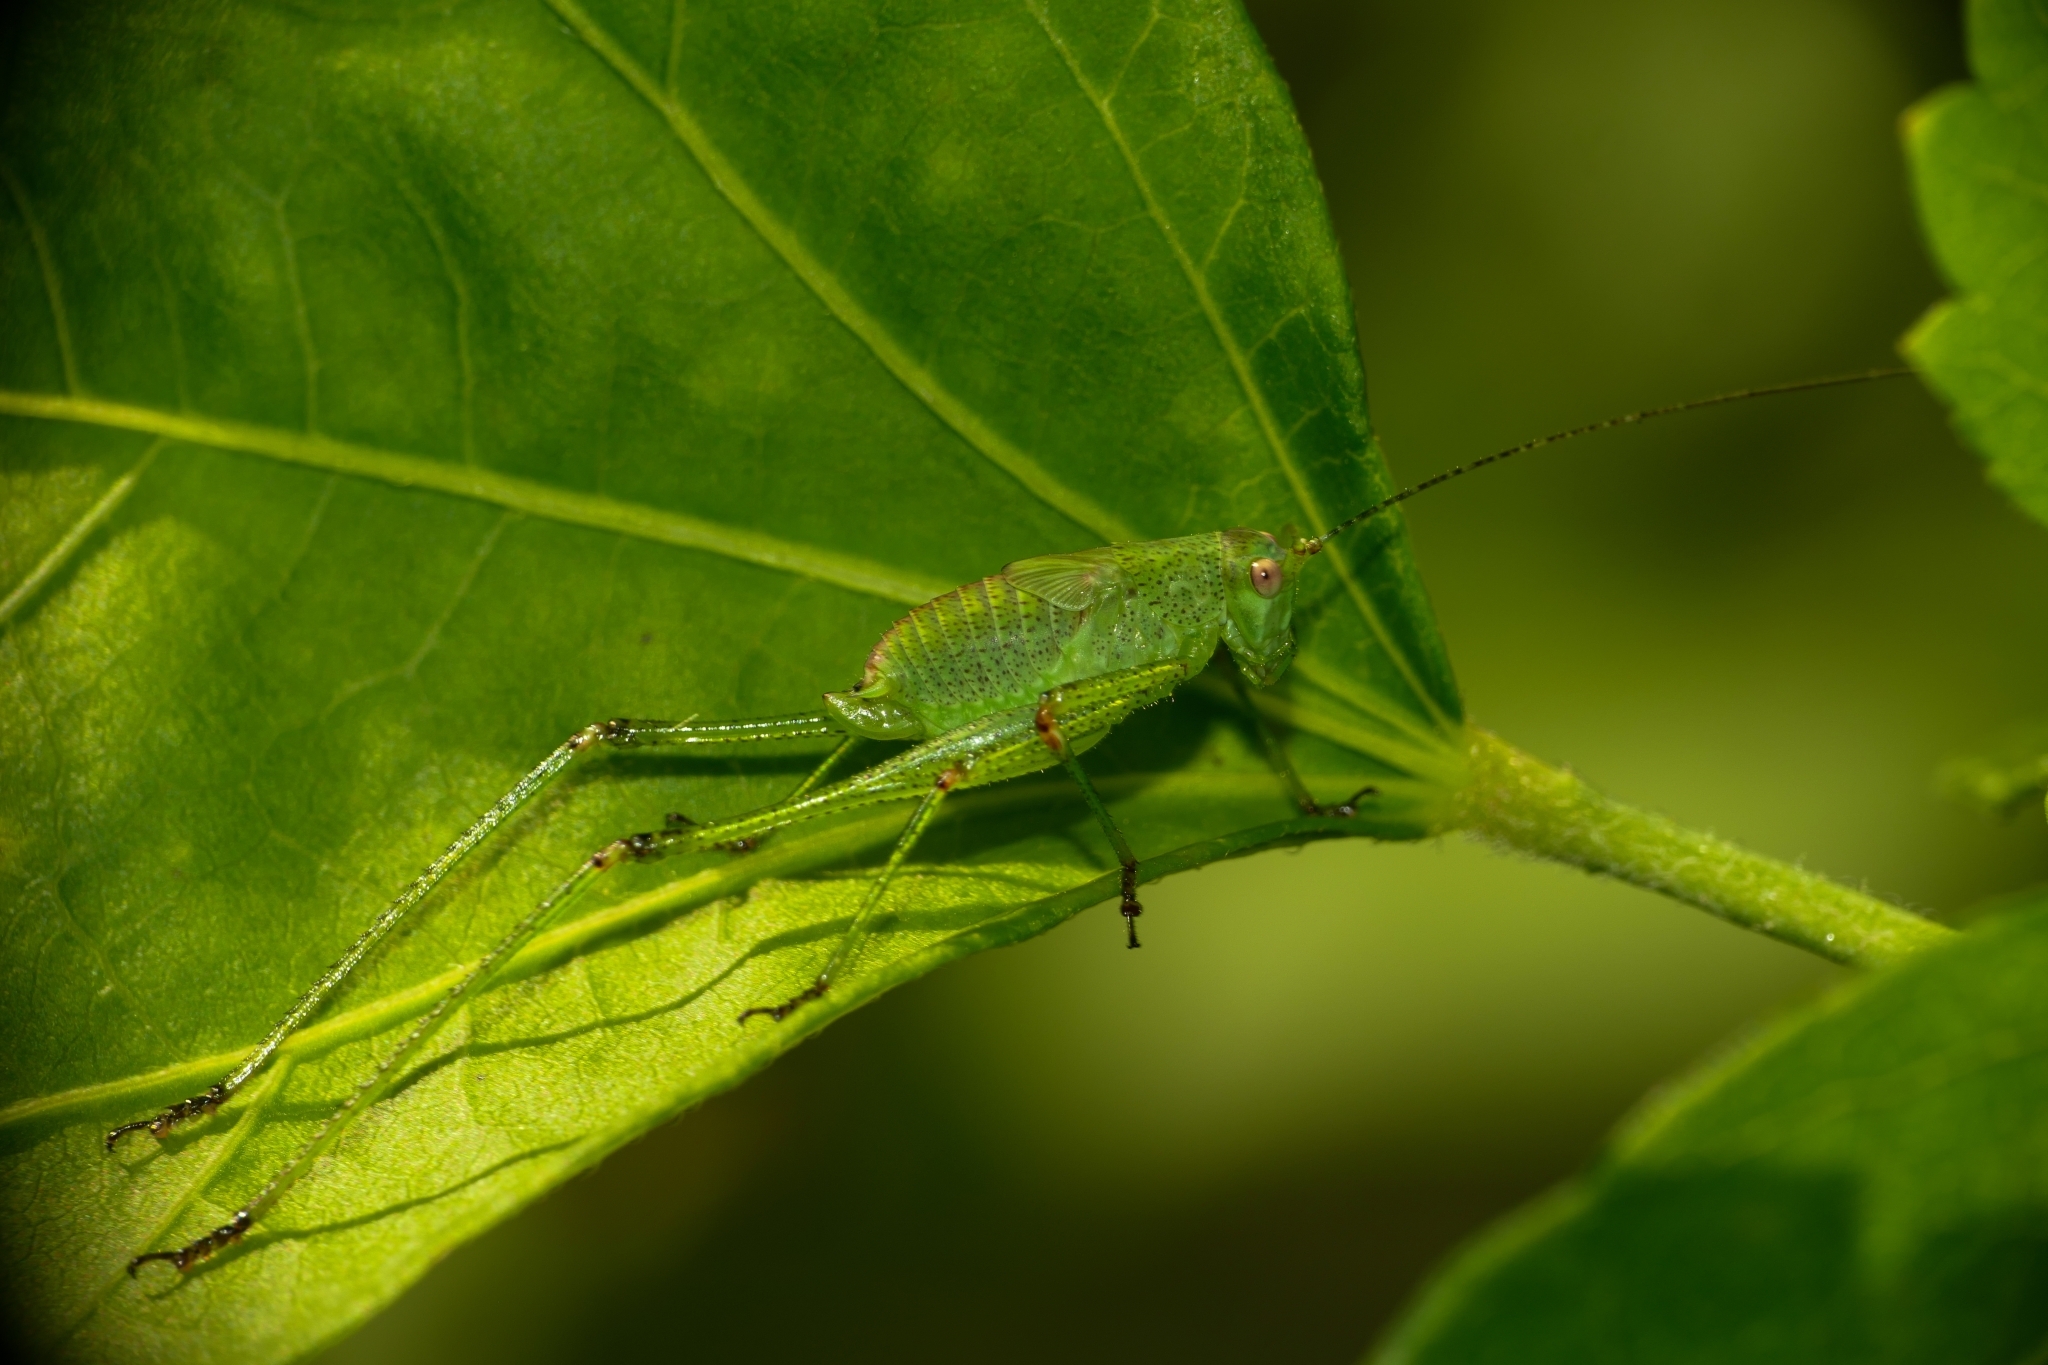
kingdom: Animalia
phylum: Arthropoda
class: Insecta
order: Orthoptera
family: Tettigoniidae
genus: Phaneroptera
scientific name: Phaneroptera nana
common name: Southern sickle bush-cricket
